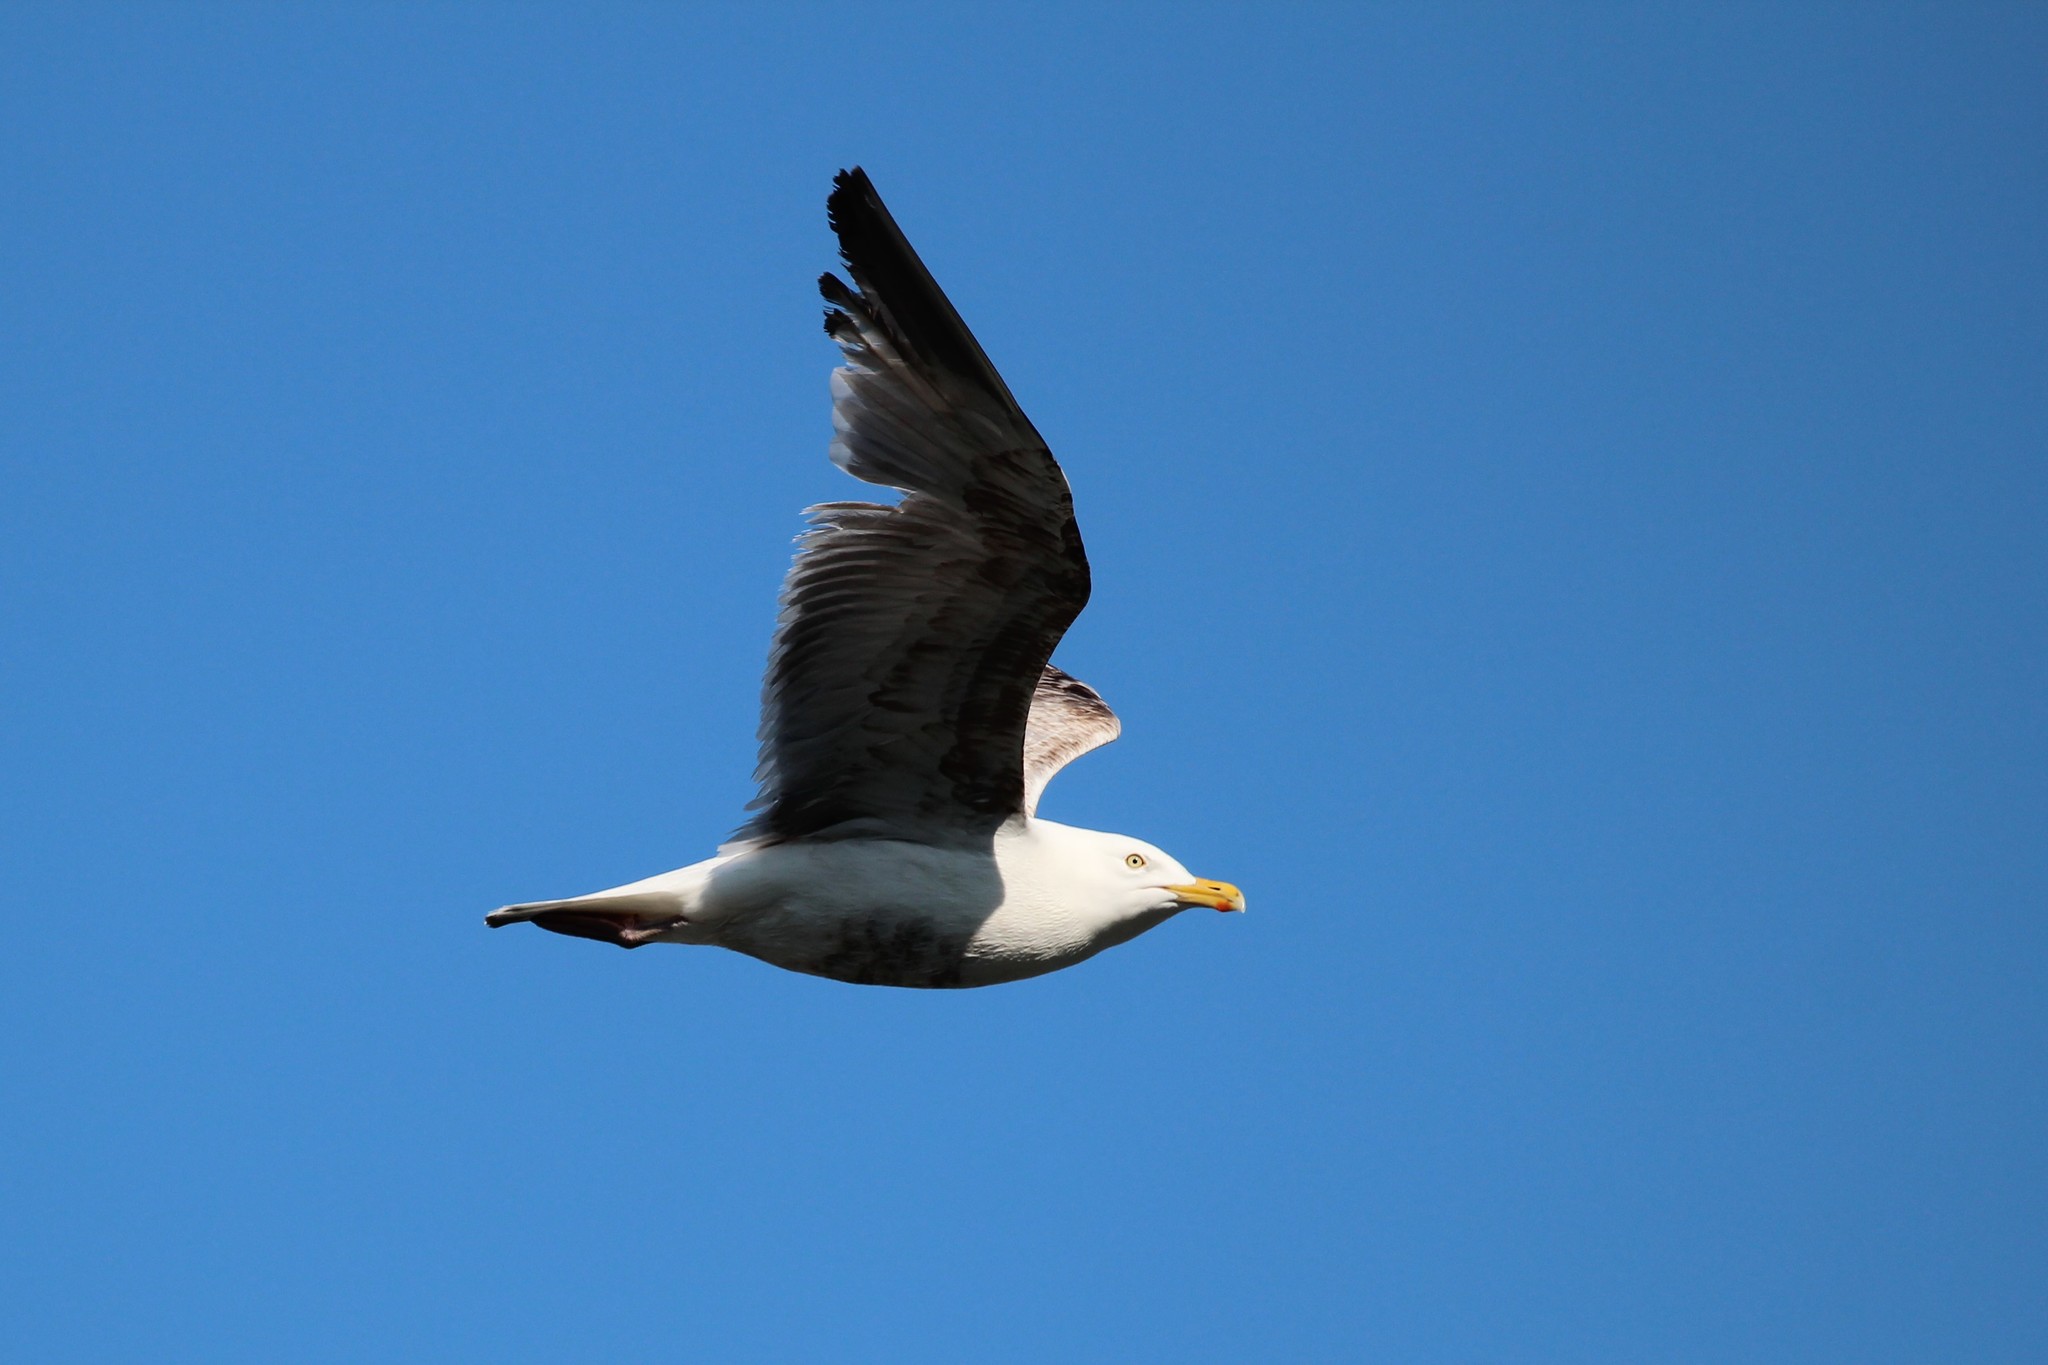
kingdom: Animalia
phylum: Chordata
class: Aves
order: Charadriiformes
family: Laridae
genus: Larus
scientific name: Larus argentatus
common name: Herring gull
